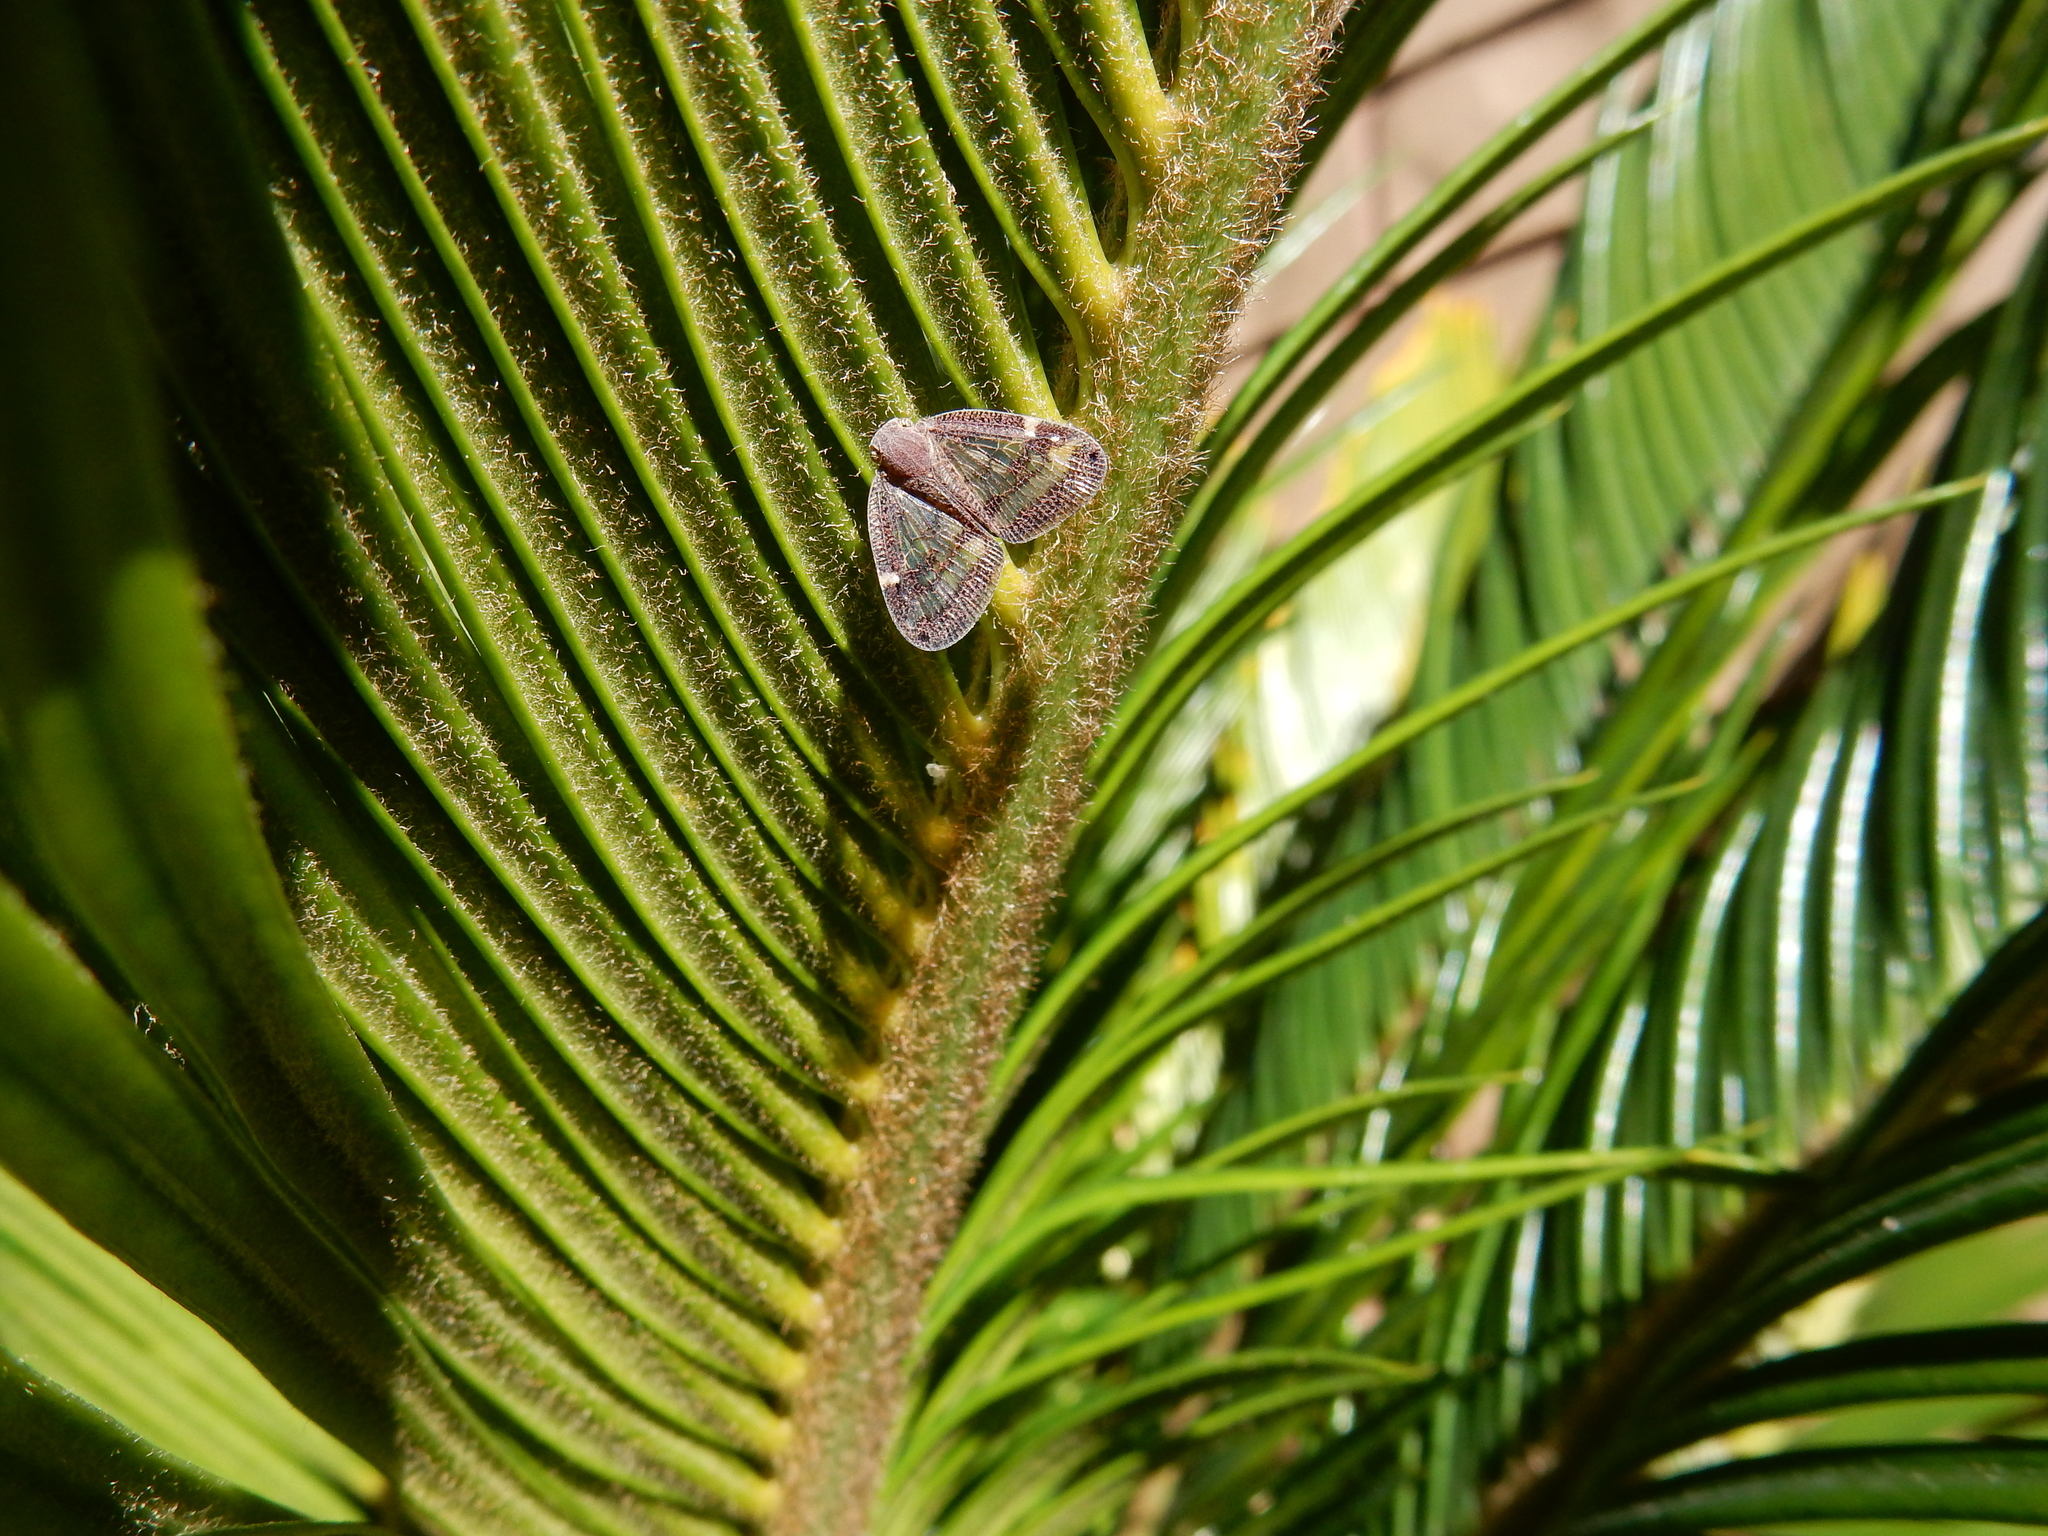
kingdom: Animalia
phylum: Arthropoda
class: Insecta
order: Hemiptera
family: Ricaniidae
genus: Scolypopa
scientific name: Scolypopa australis
